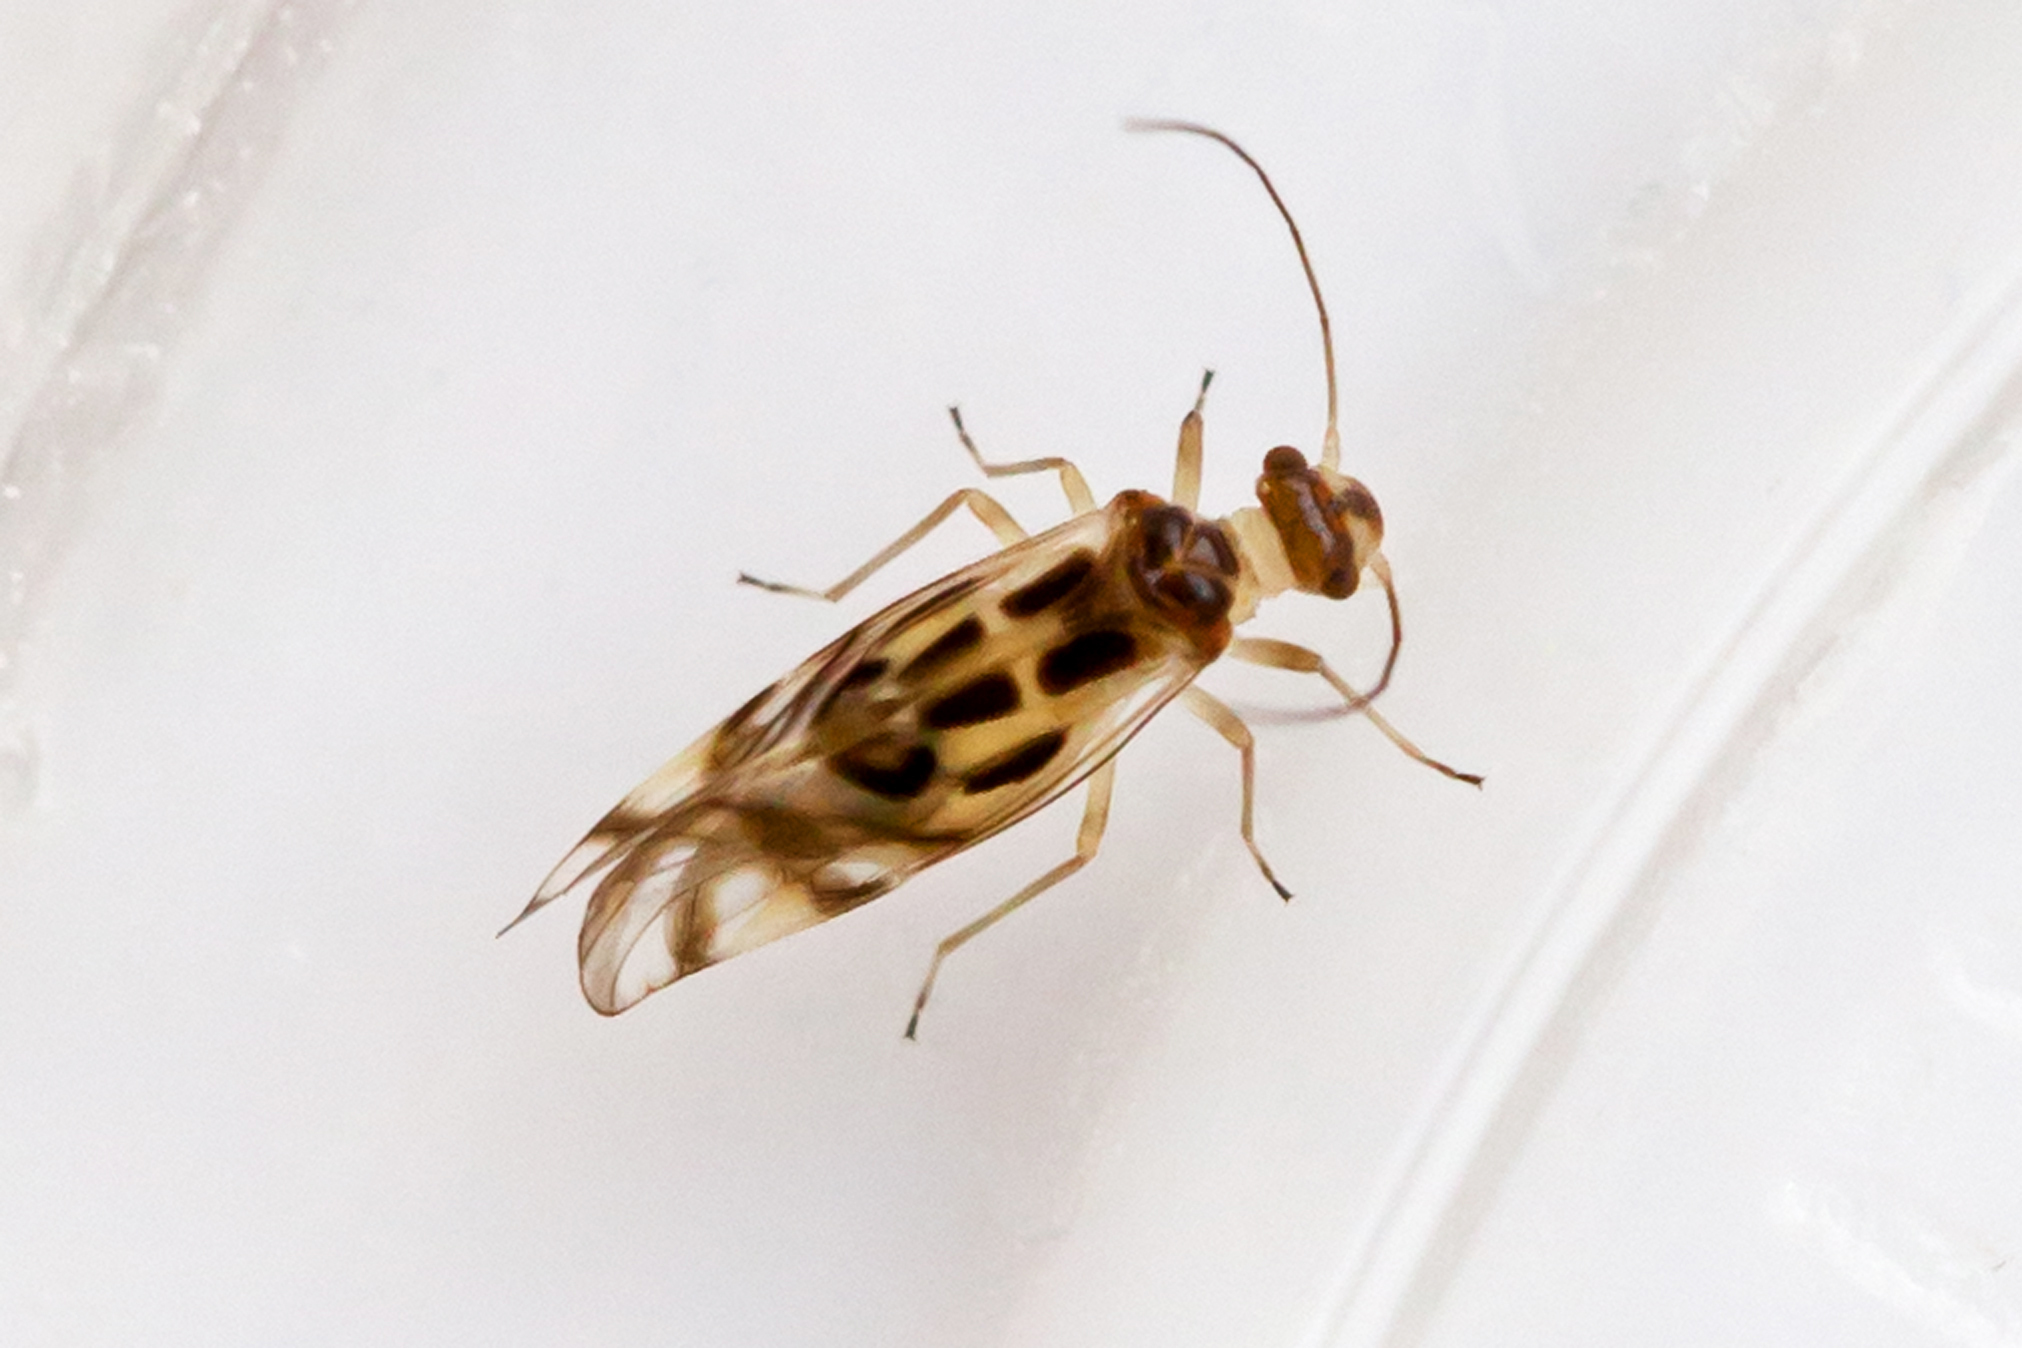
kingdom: Animalia
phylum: Arthropoda
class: Insecta
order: Psocodea
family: Stenopsocidae
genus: Graphopsocus
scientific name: Graphopsocus cruciatus
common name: Lizard bark louse
